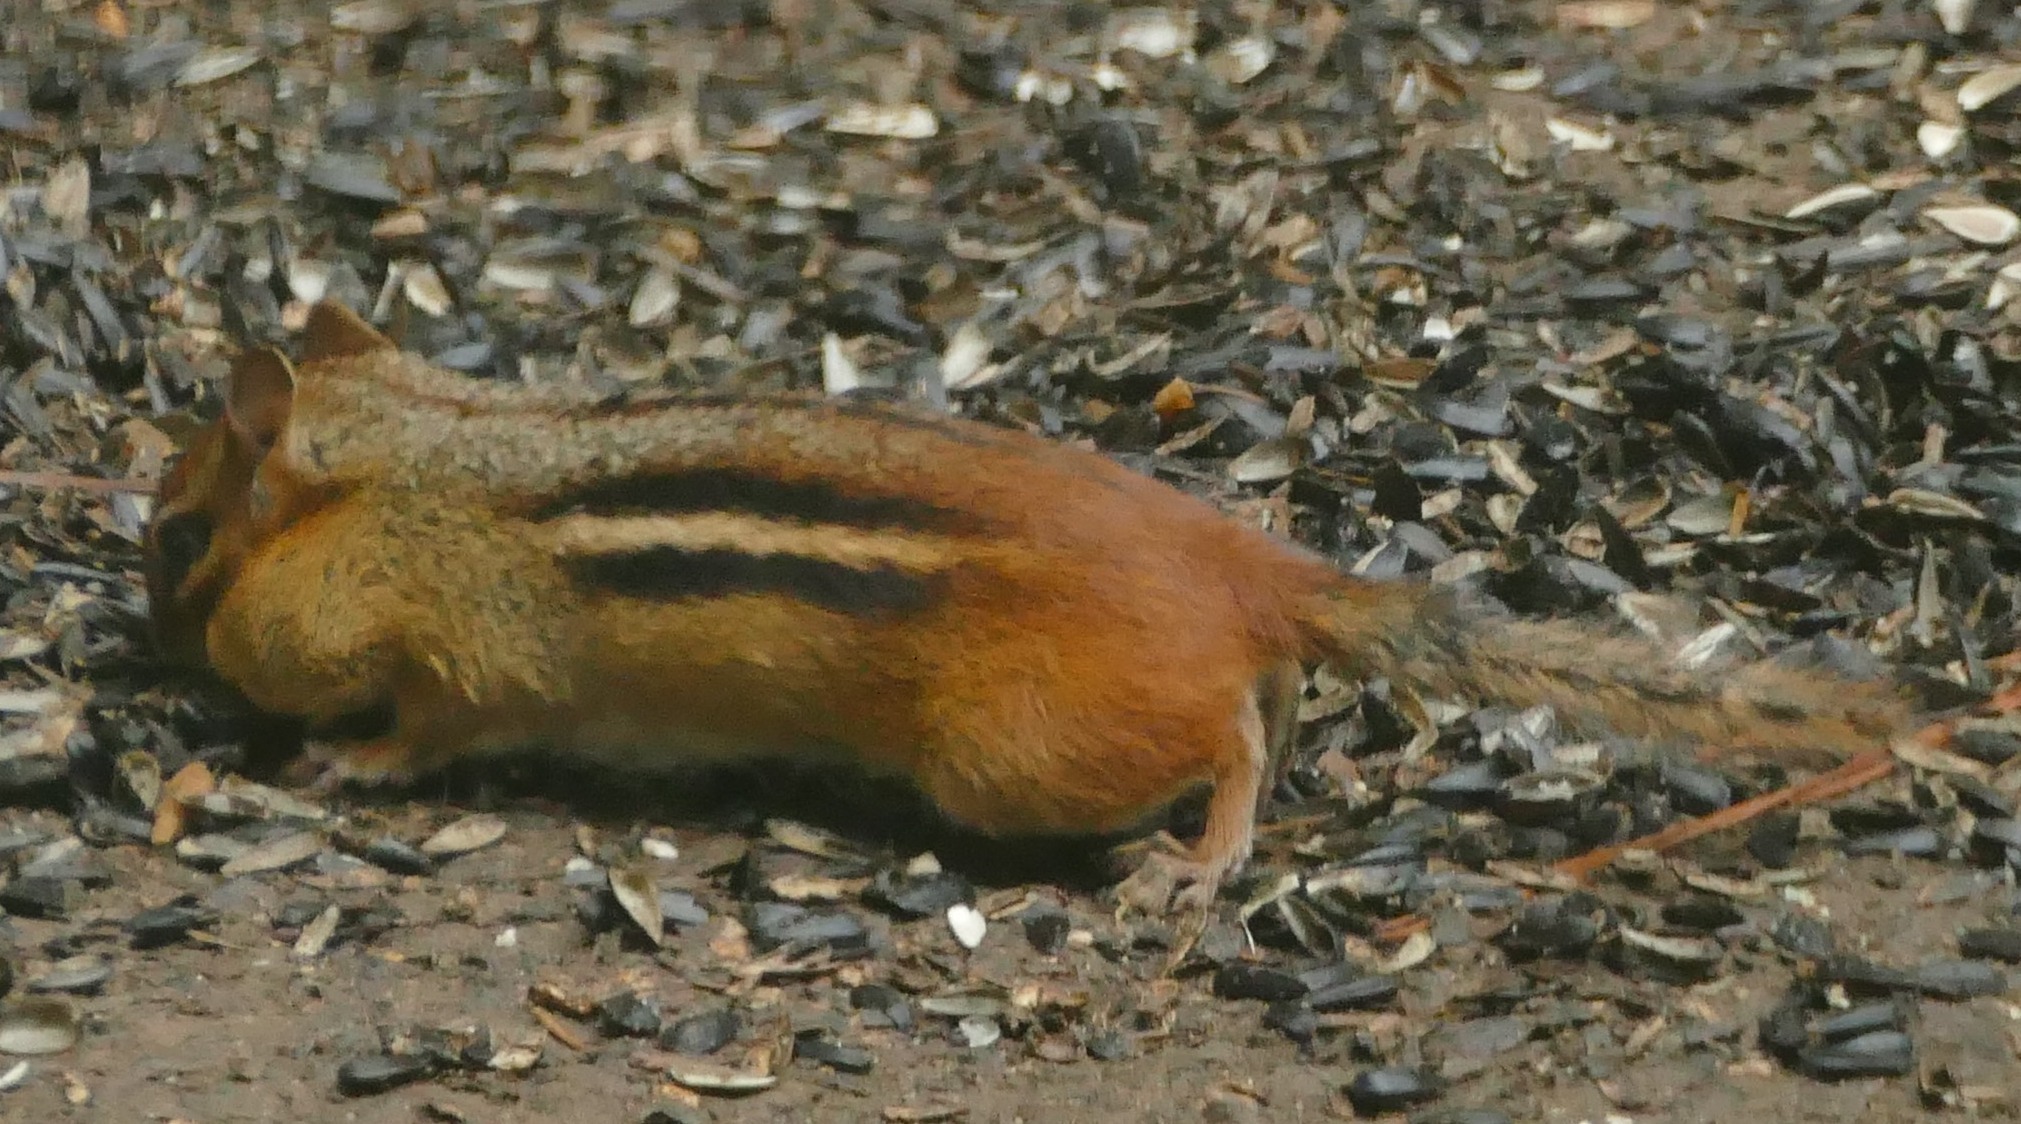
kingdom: Animalia
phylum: Chordata
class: Mammalia
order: Rodentia
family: Sciuridae
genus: Tamias
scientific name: Tamias striatus
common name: Eastern chipmunk
